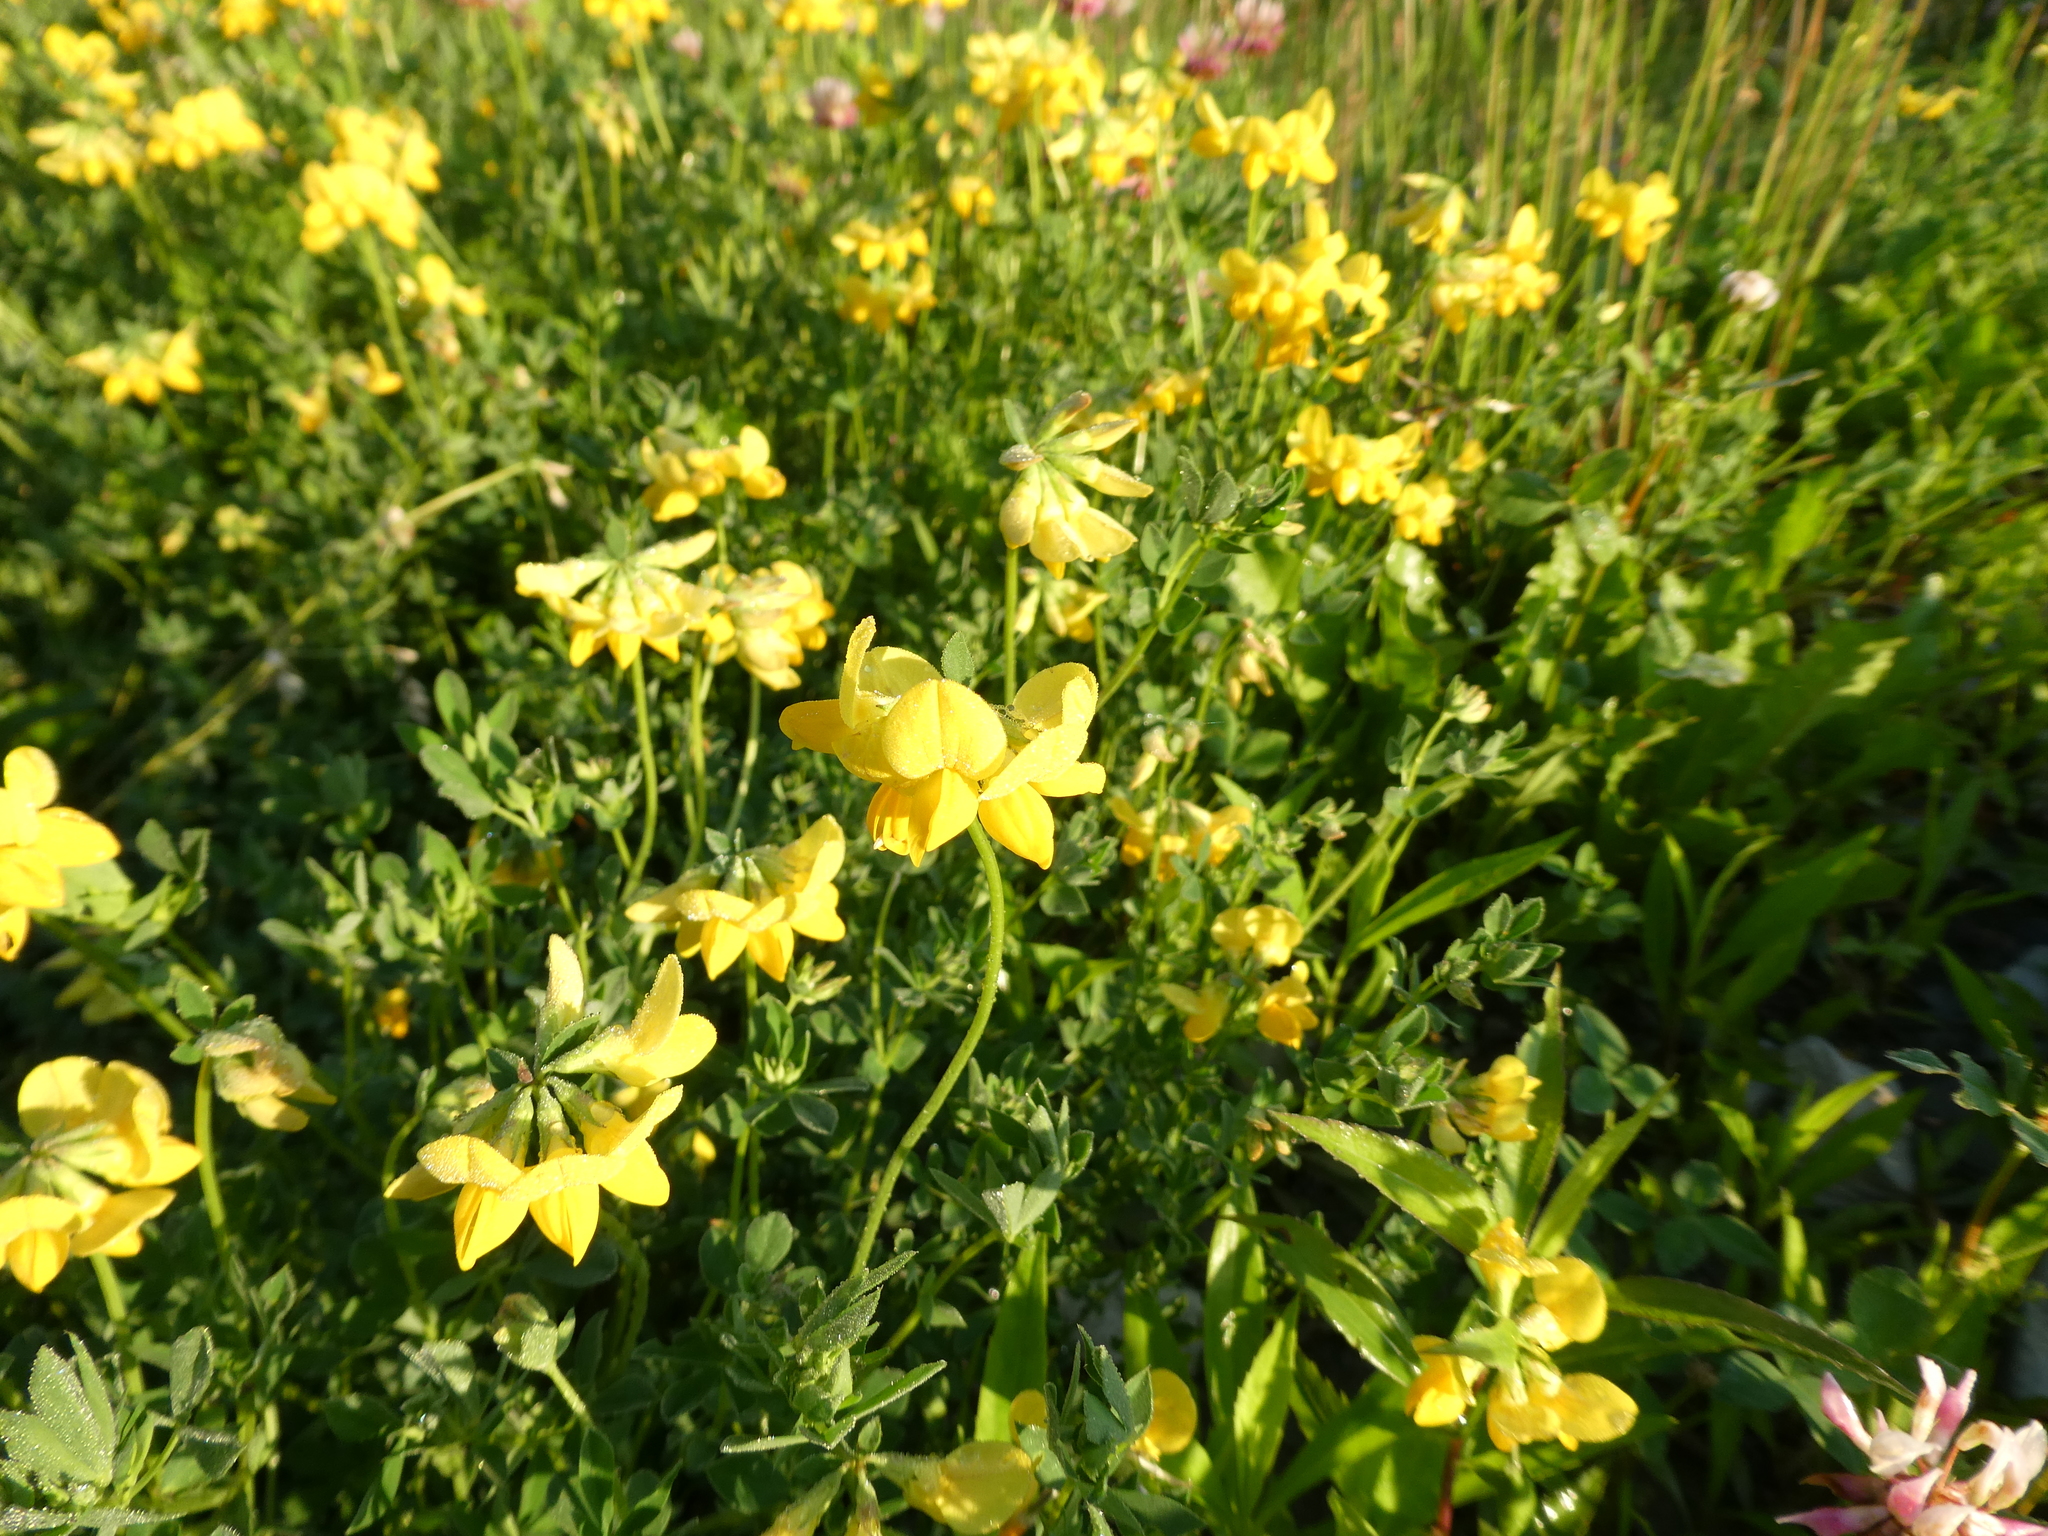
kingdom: Plantae
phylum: Tracheophyta
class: Magnoliopsida
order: Fabales
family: Fabaceae
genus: Lotus
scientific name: Lotus corniculatus
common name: Common bird's-foot-trefoil
